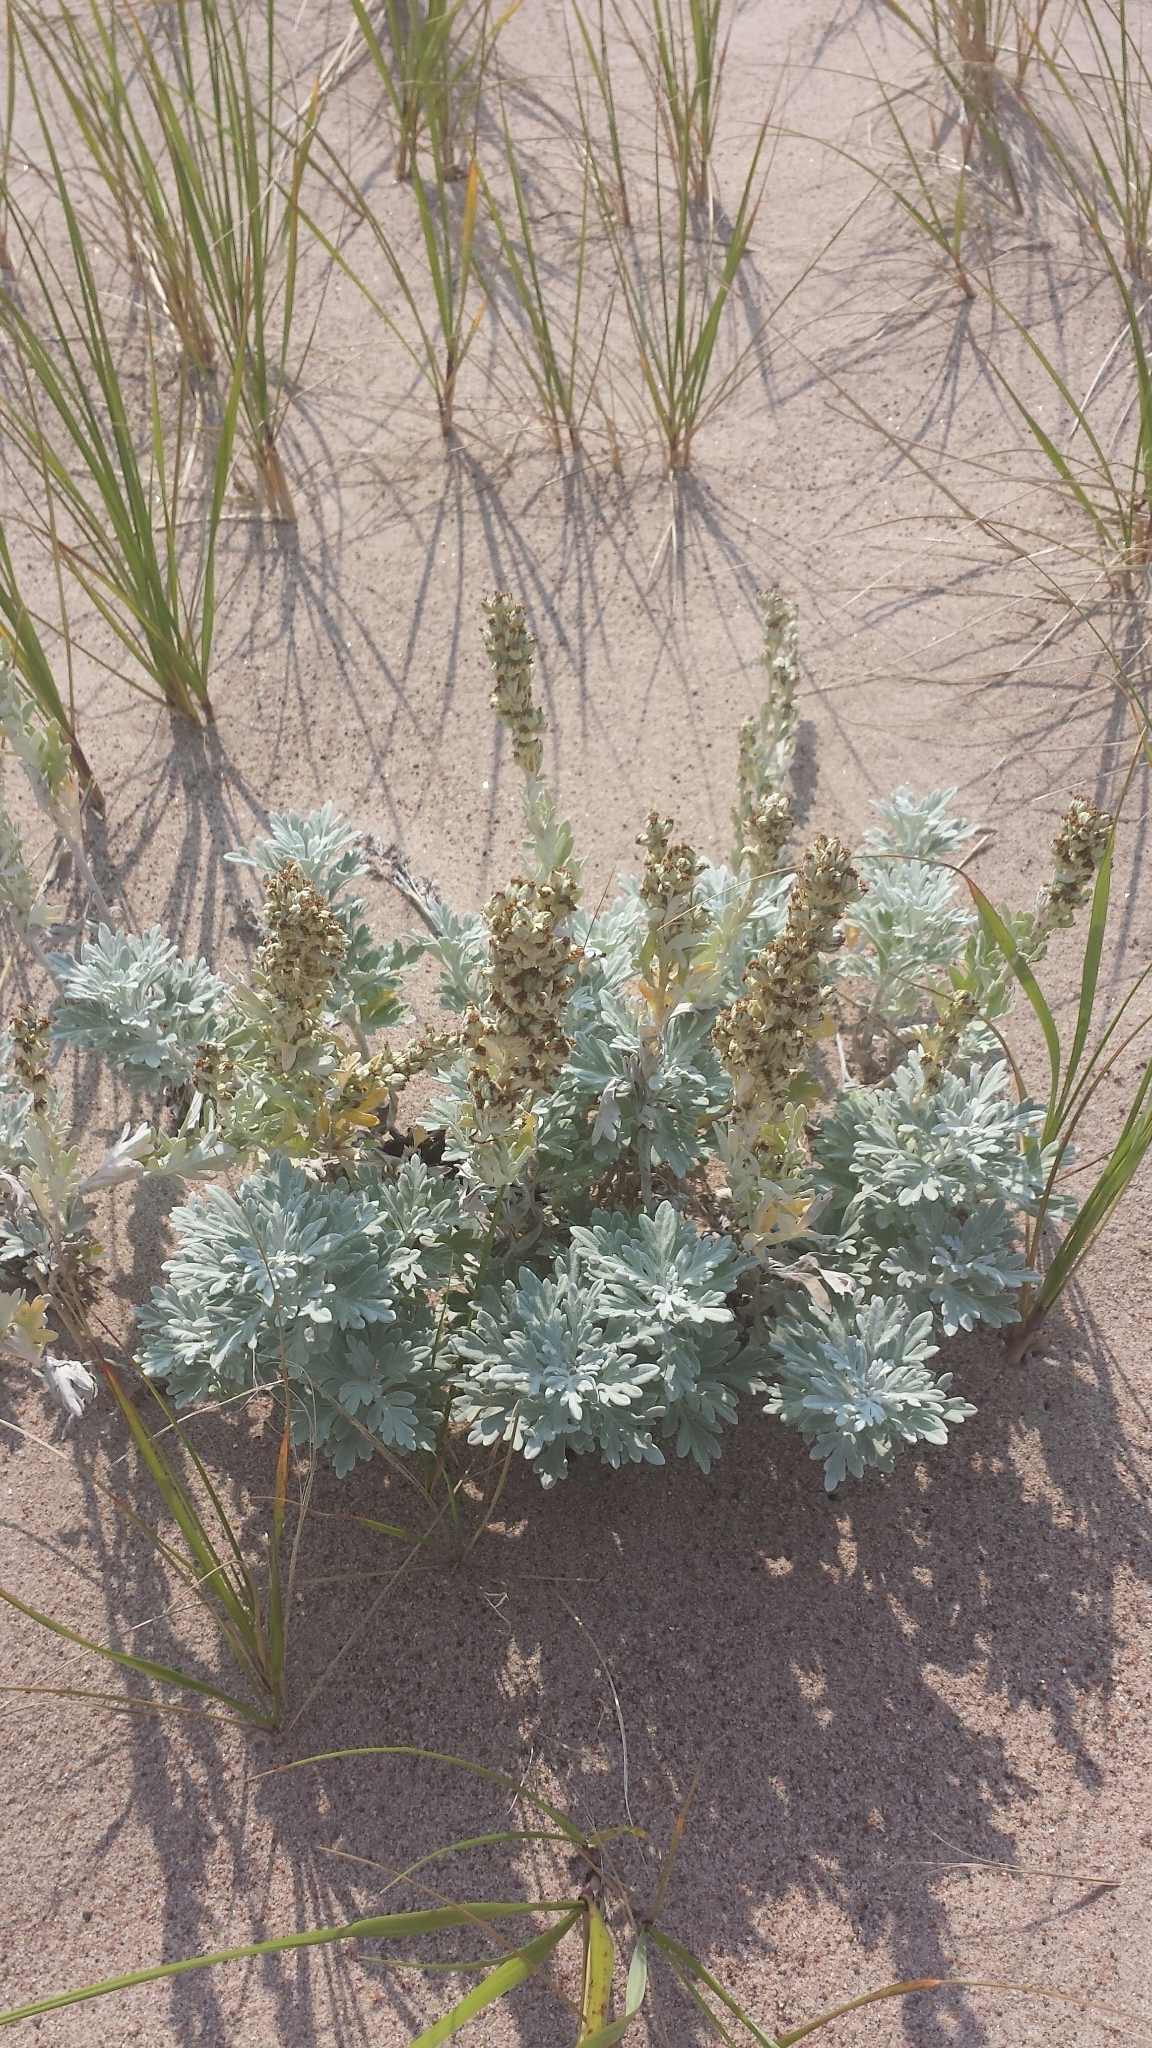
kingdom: Plantae
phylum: Tracheophyta
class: Magnoliopsida
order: Asterales
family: Asteraceae
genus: Artemisia
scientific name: Artemisia stelleriana
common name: Beach wormwood
